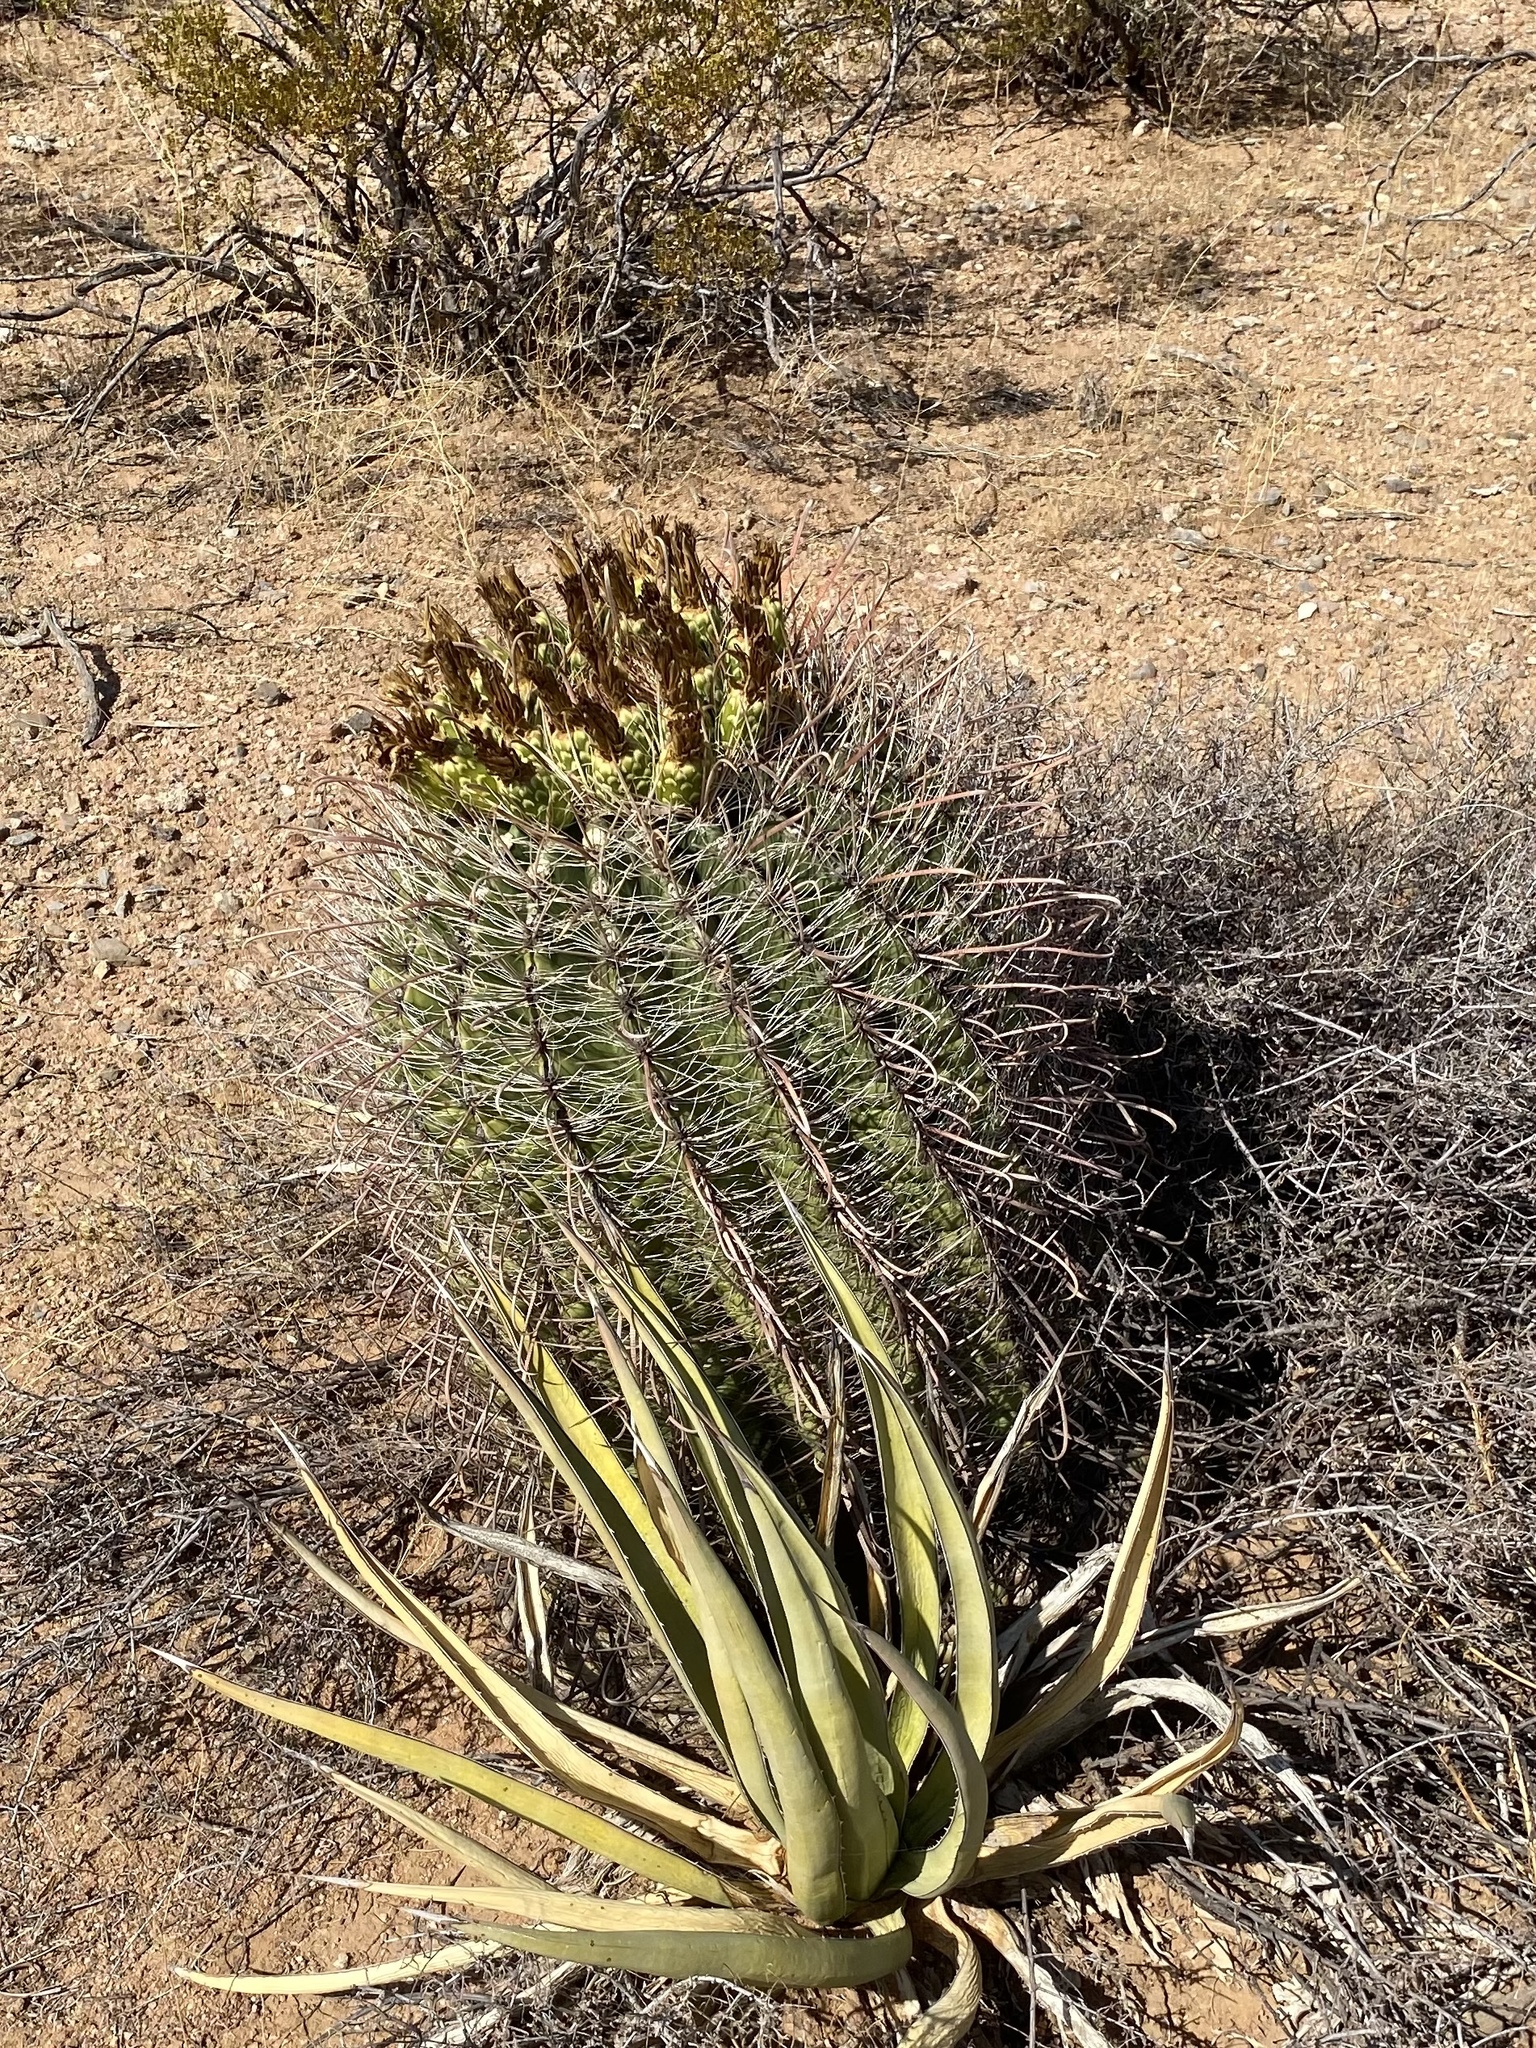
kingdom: Plantae
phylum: Tracheophyta
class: Magnoliopsida
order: Caryophyllales
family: Cactaceae
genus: Ferocactus
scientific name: Ferocactus wislizeni
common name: Candy barrel cactus
